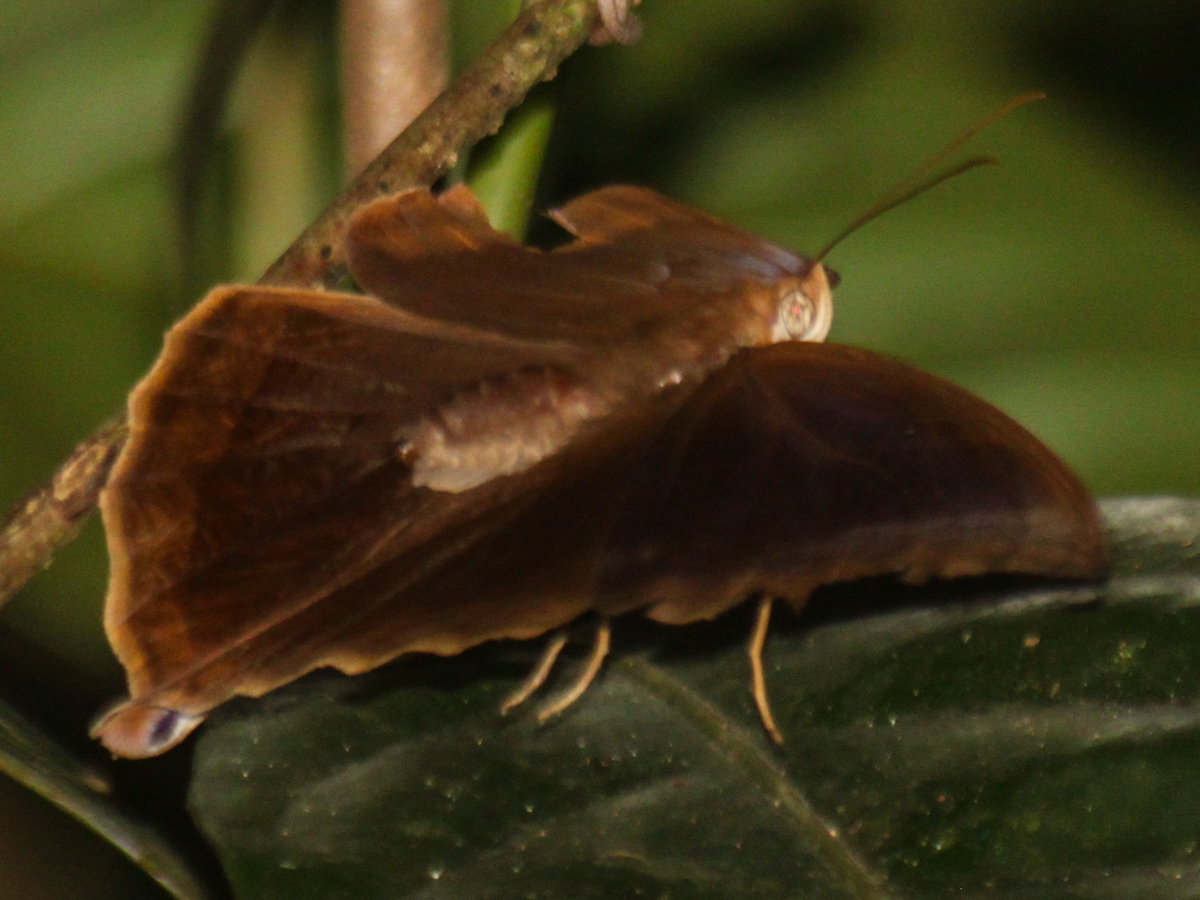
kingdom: Animalia
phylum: Arthropoda
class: Insecta
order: Lepidoptera
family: Nymphalidae
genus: Amathusia
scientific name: Amathusia phidippus
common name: Palm king
